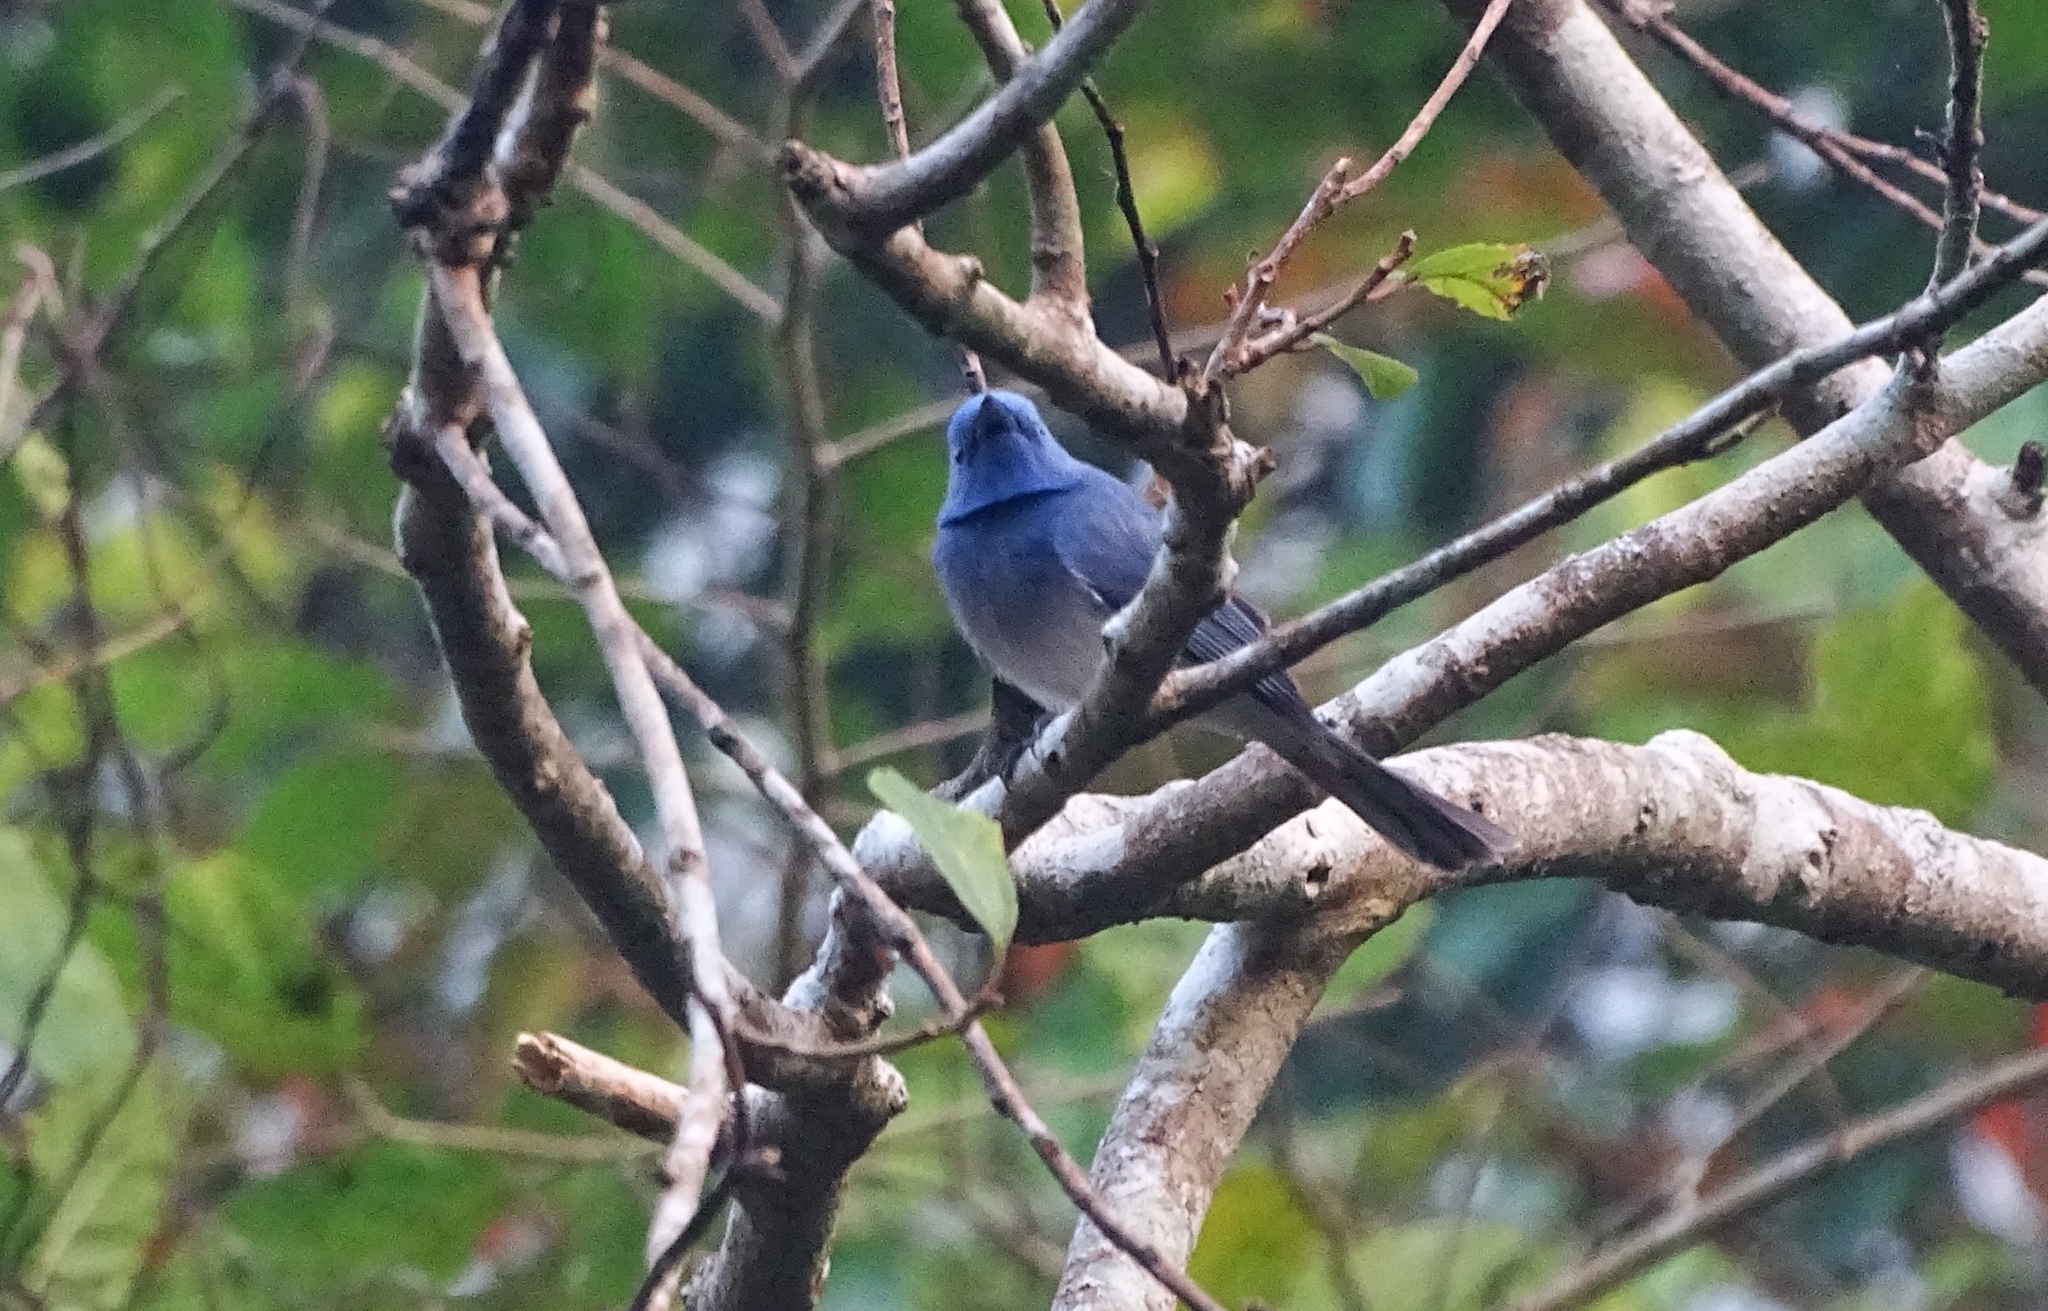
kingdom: Animalia
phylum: Chordata
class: Aves
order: Passeriformes
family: Monarchidae
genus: Hypothymis
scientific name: Hypothymis azurea
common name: Black-naped monarch
